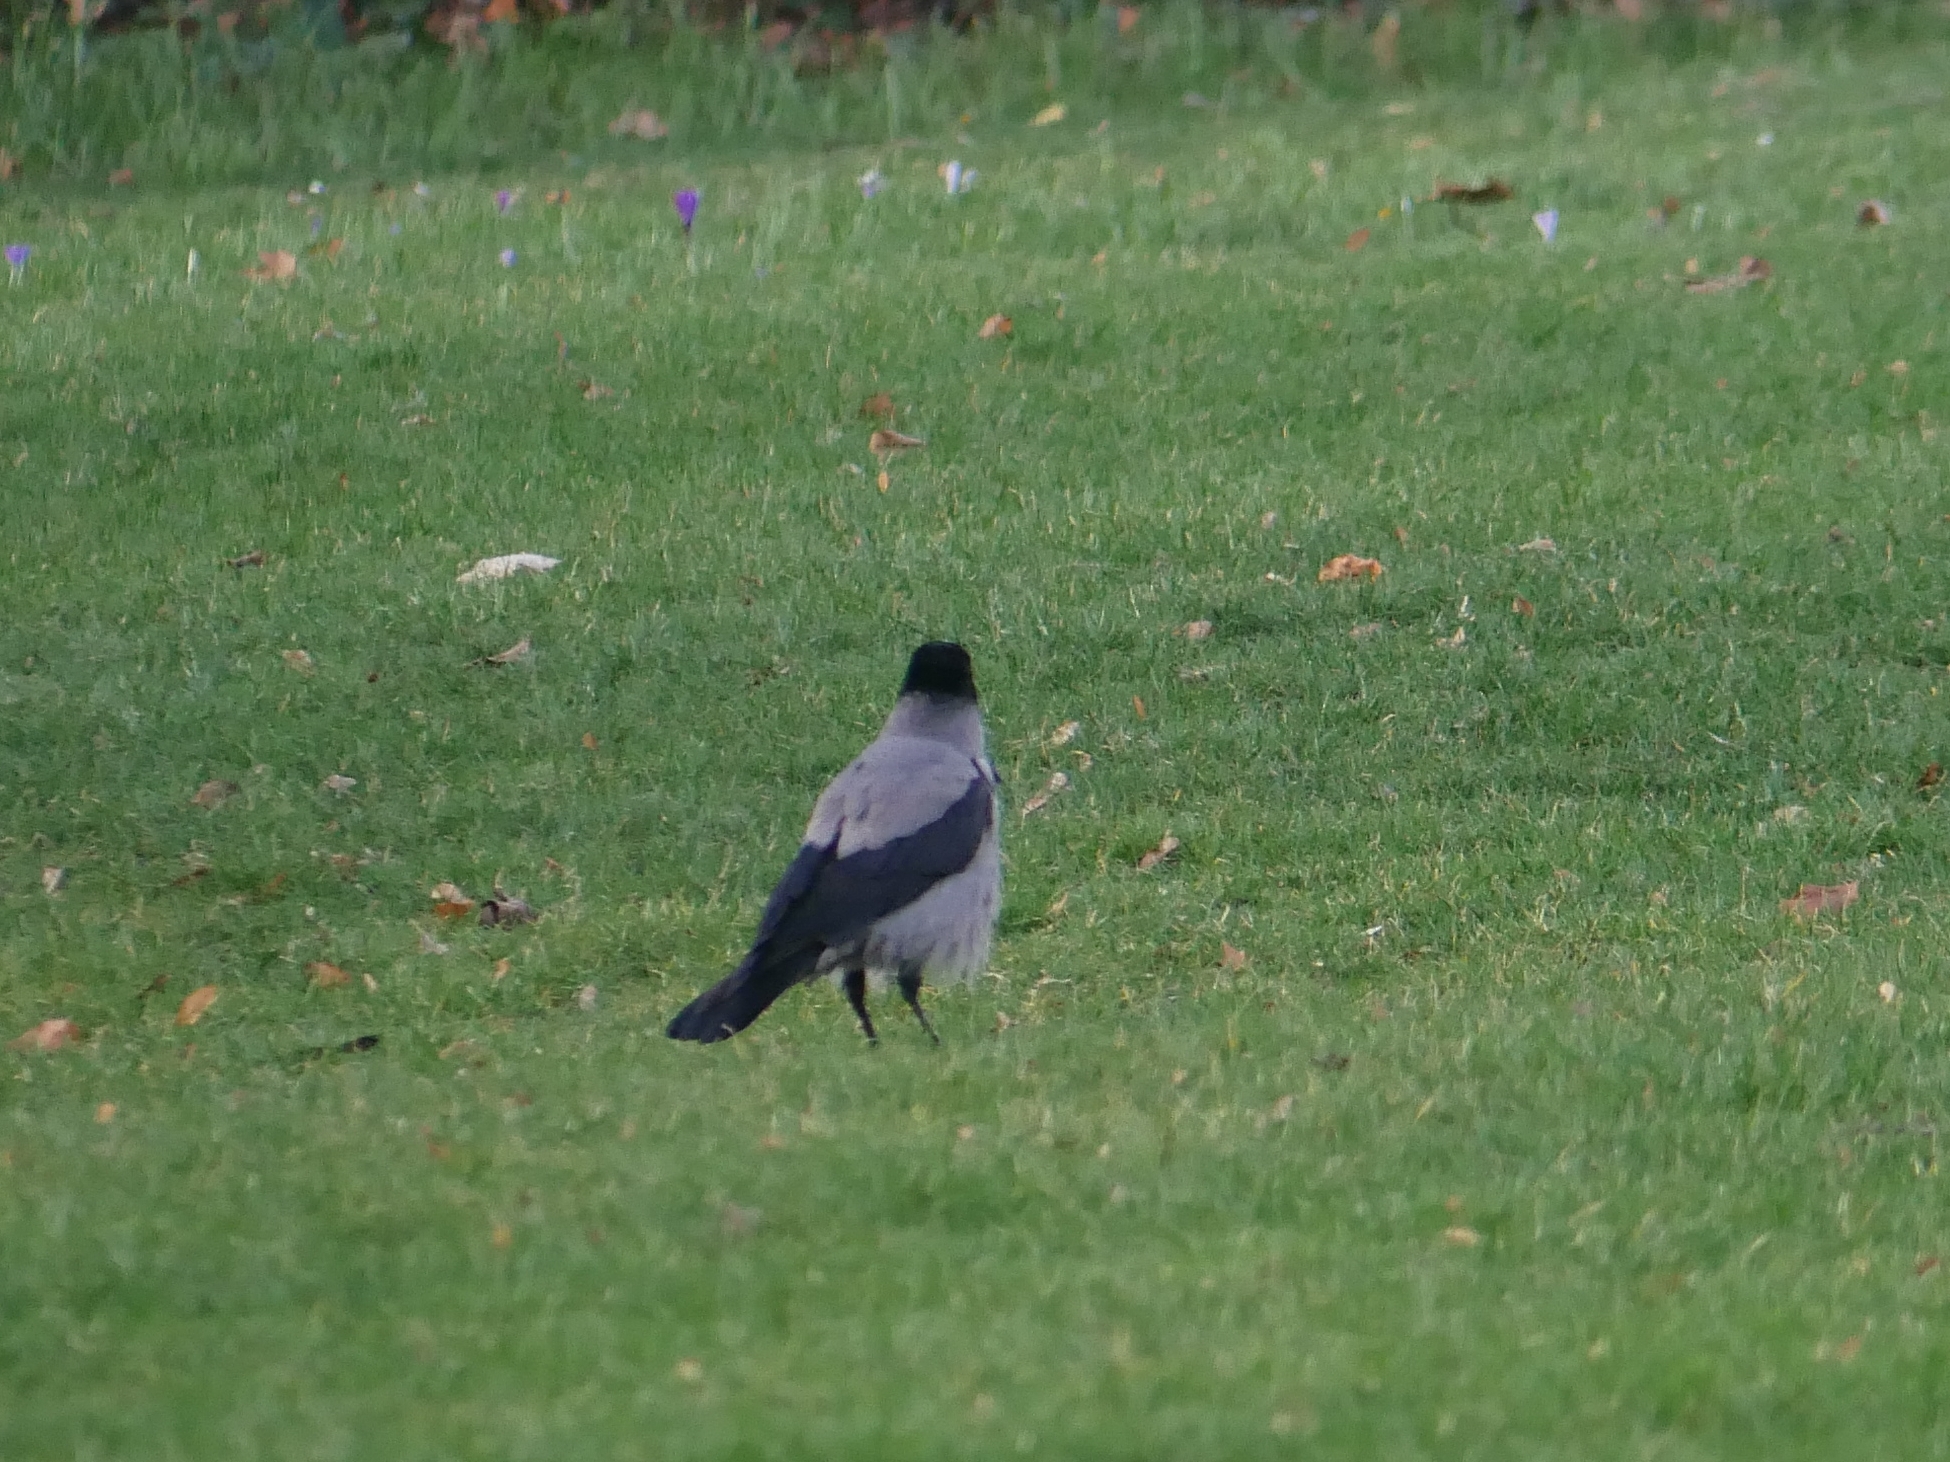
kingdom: Animalia
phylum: Chordata
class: Aves
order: Passeriformes
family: Corvidae
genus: Corvus
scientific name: Corvus cornix
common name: Hooded crow
